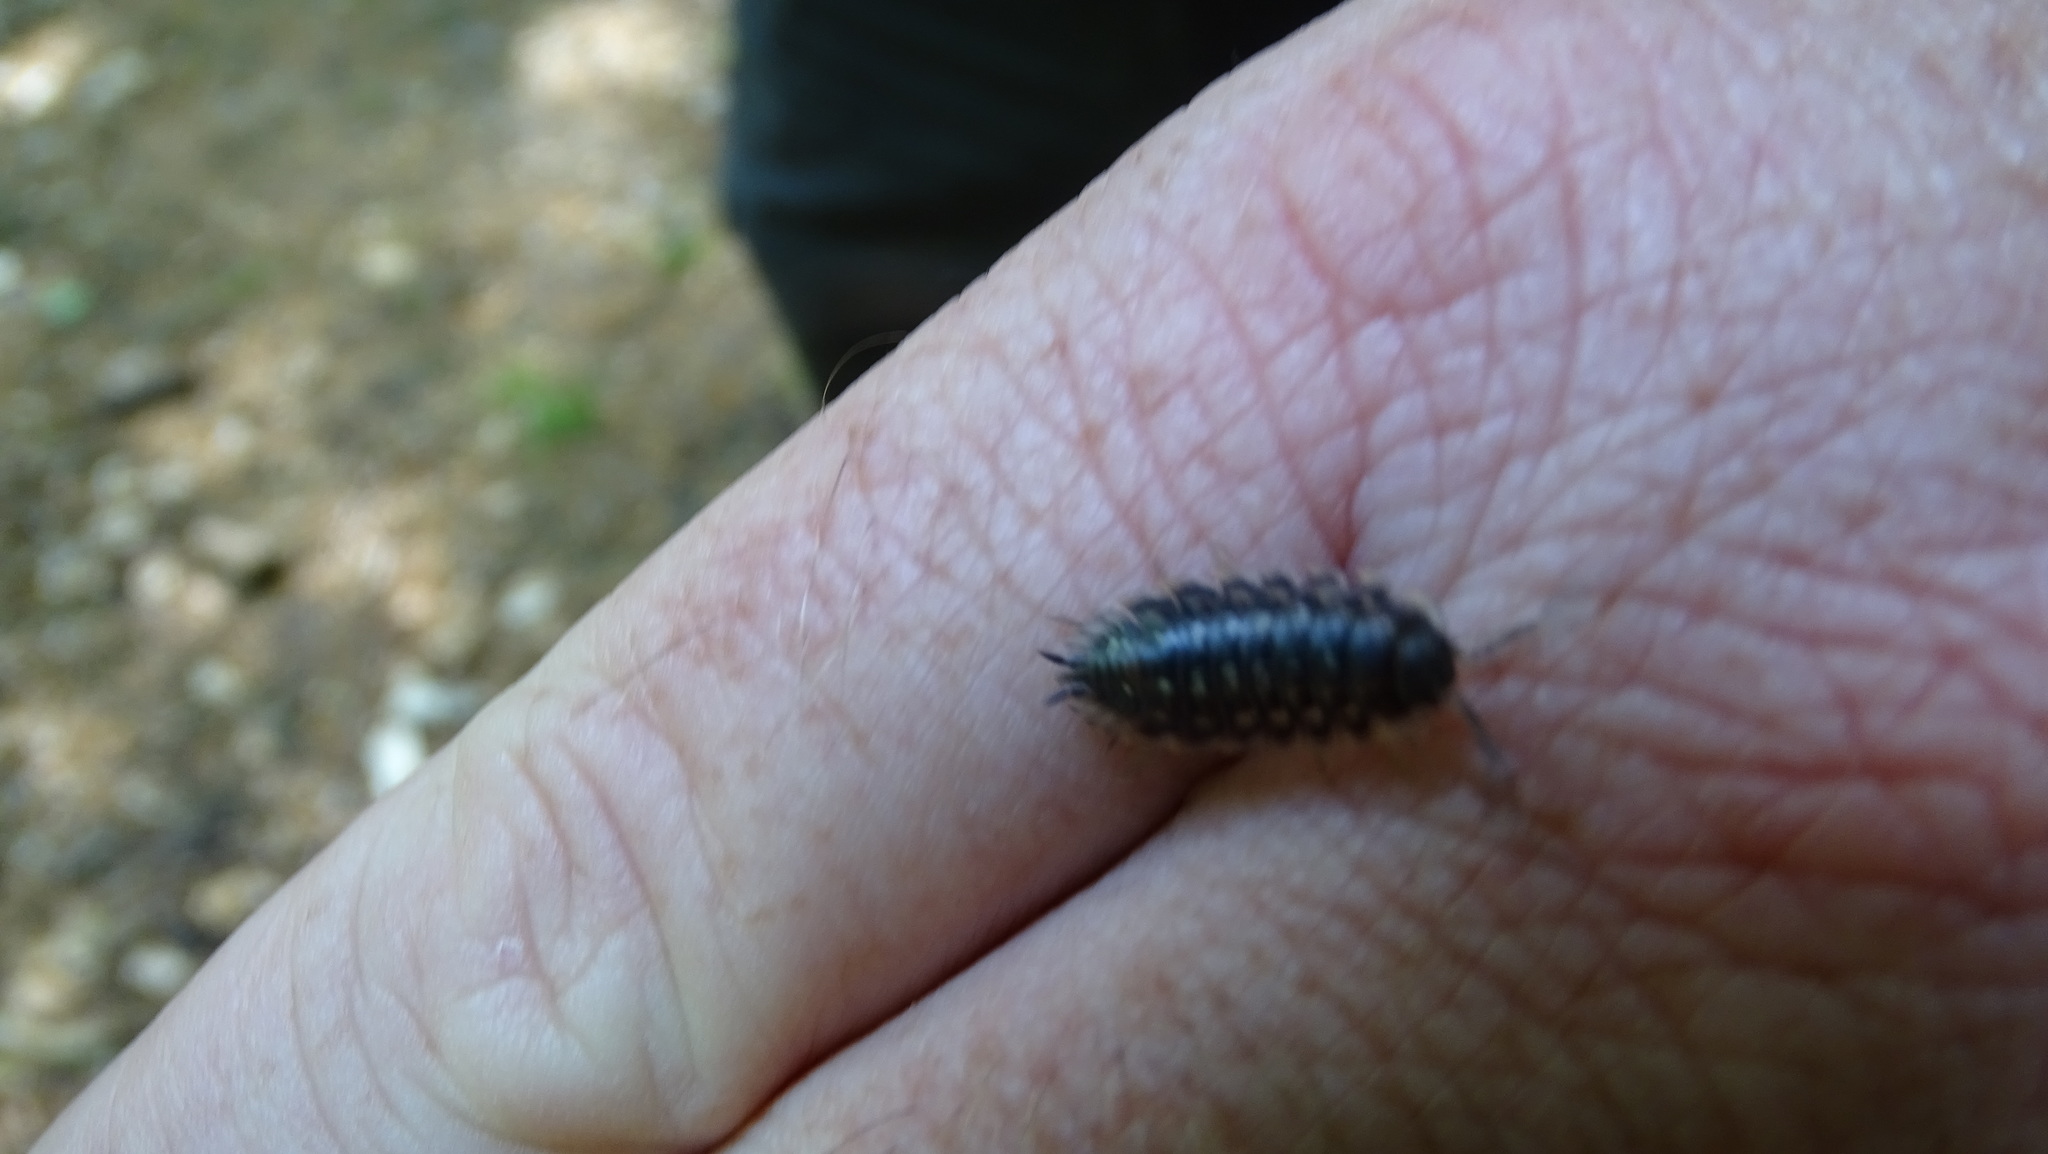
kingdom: Animalia
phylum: Arthropoda
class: Malacostraca
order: Isopoda
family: Oniscidae
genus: Oniscus
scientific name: Oniscus asellus
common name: Common shiny woodlouse
